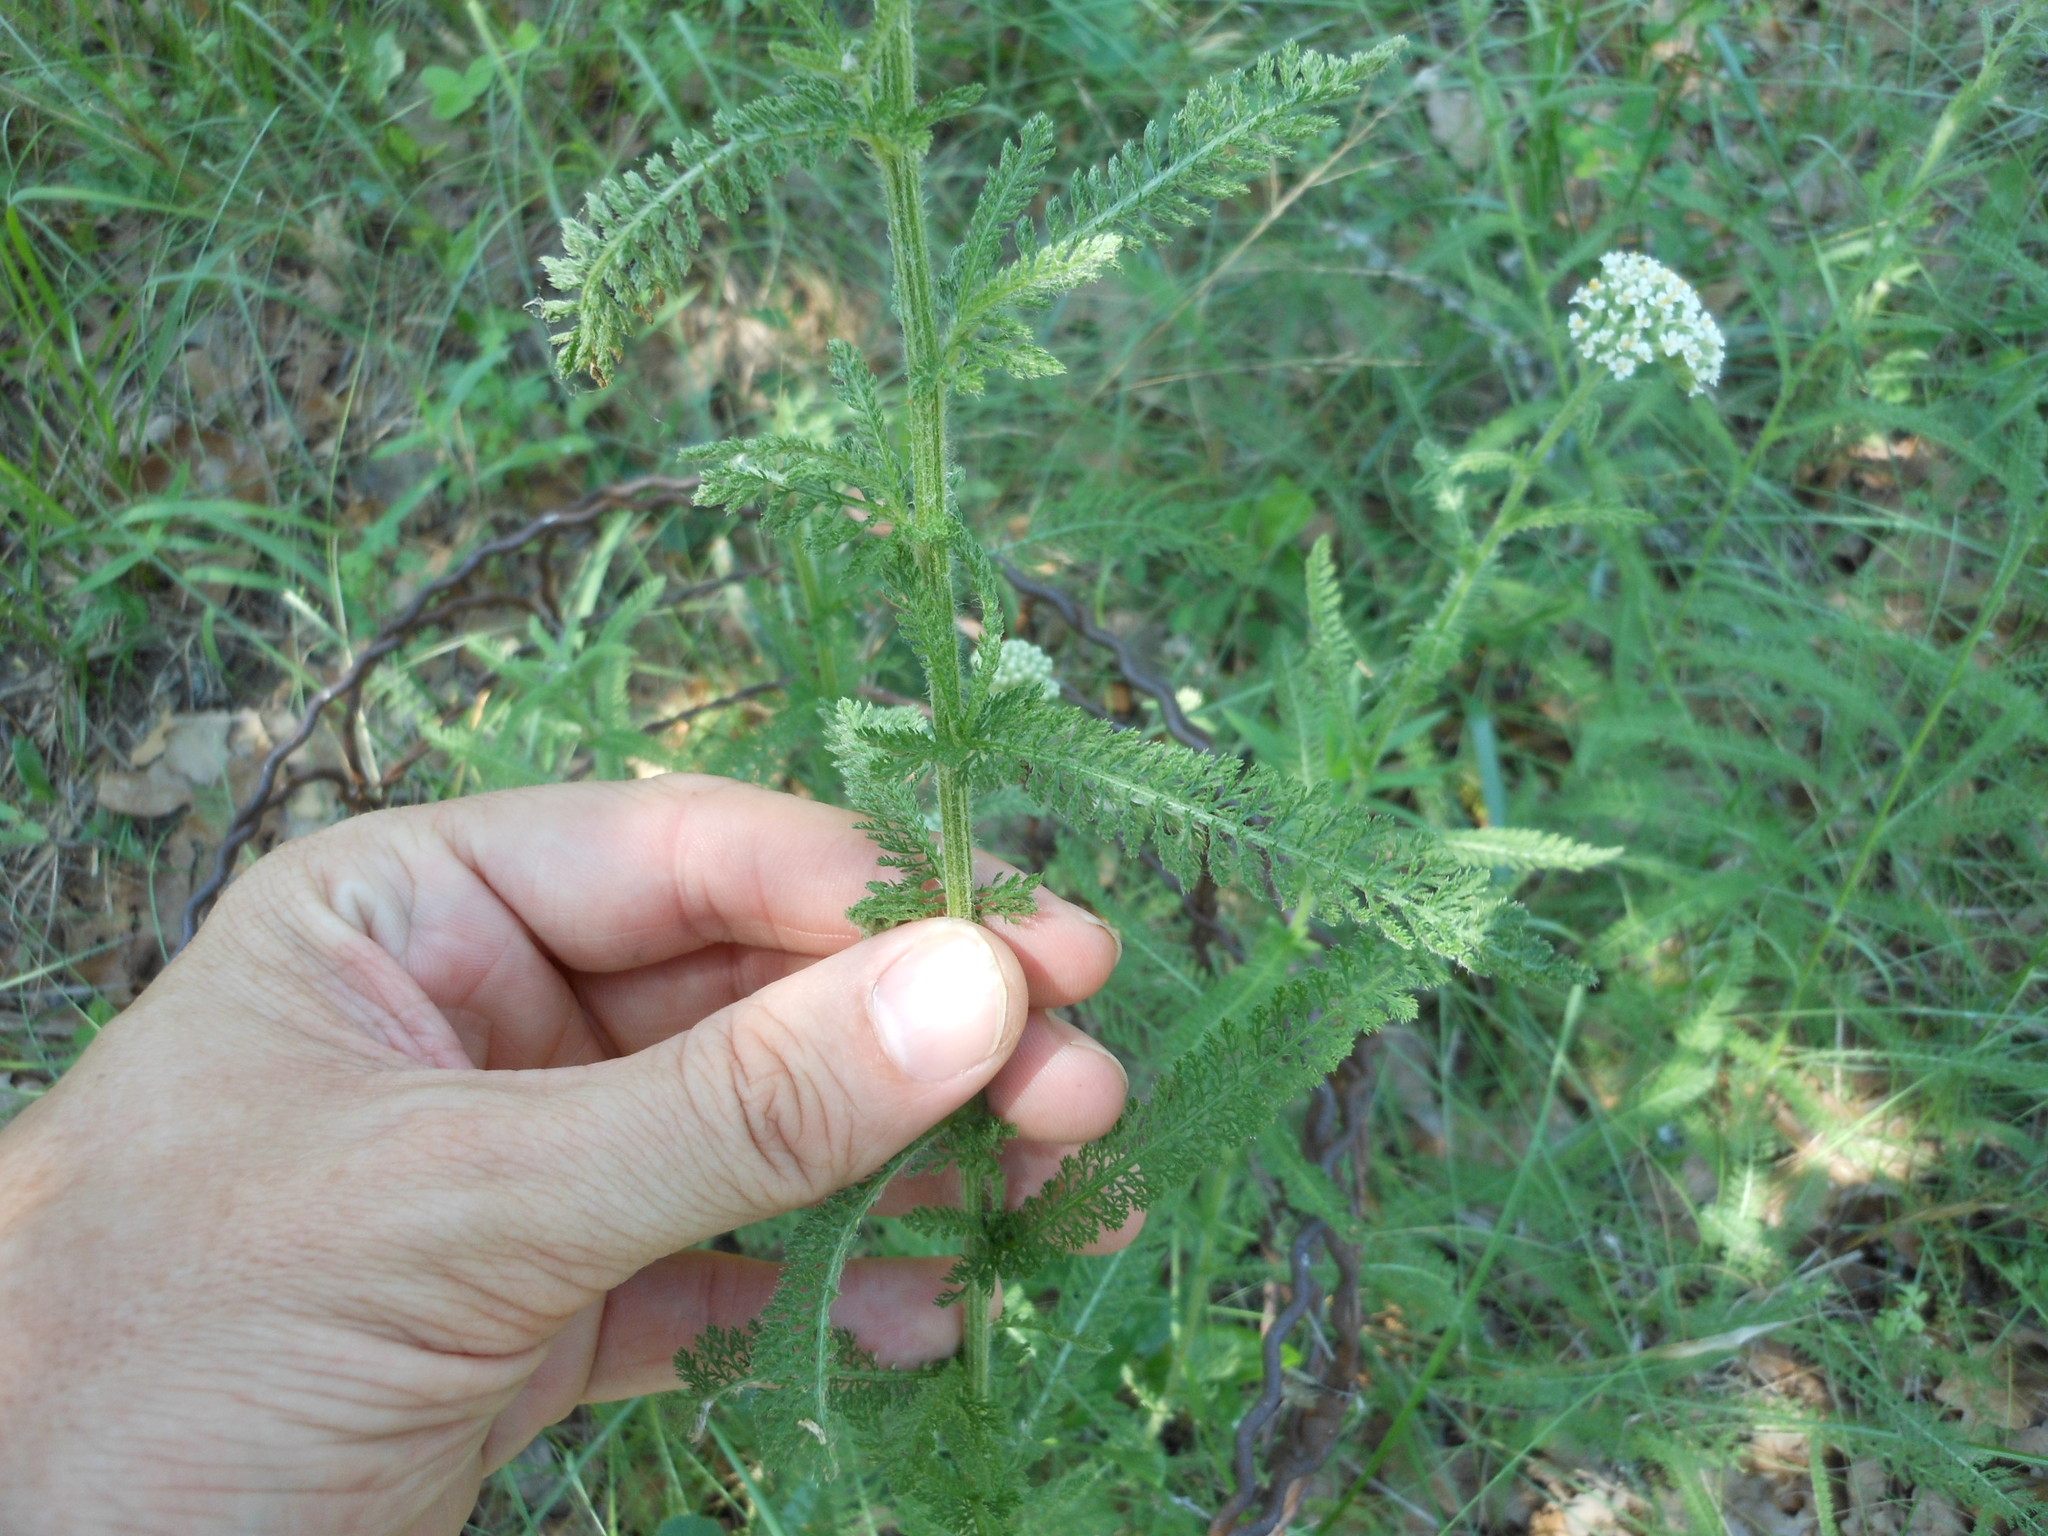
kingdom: Plantae
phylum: Tracheophyta
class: Magnoliopsida
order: Asterales
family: Asteraceae
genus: Achillea
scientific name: Achillea millefolium
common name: Yarrow
